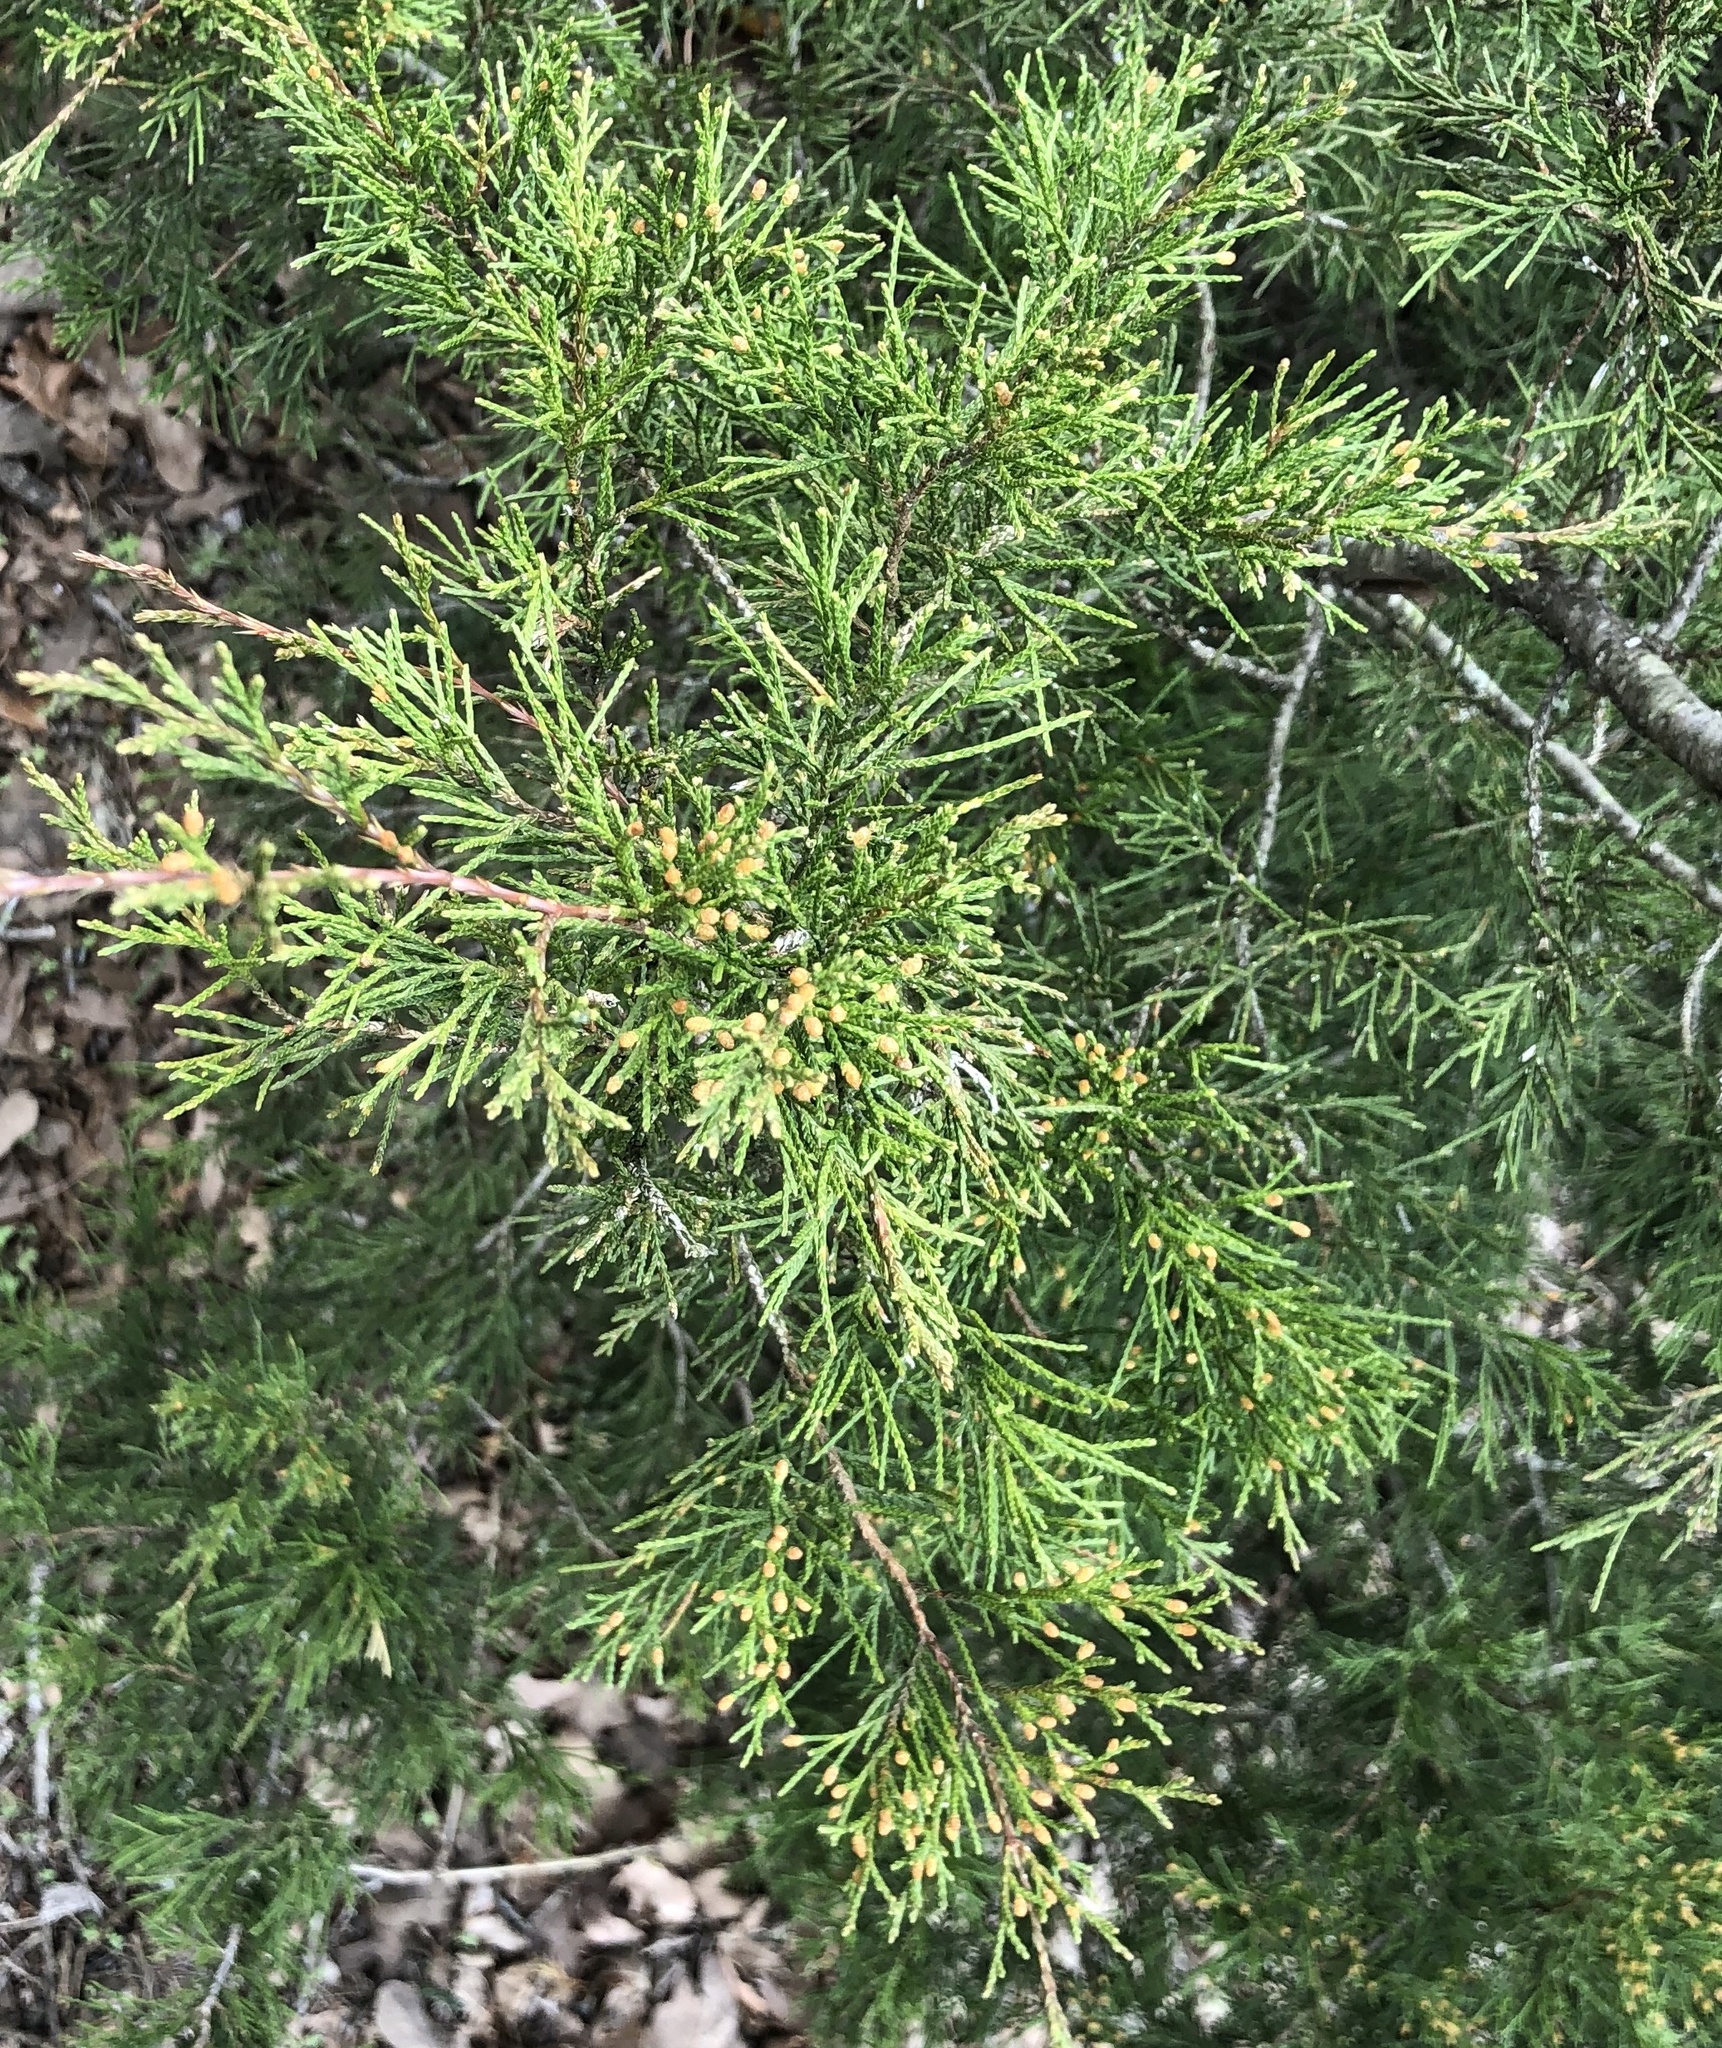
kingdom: Plantae
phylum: Tracheophyta
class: Pinopsida
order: Pinales
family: Cupressaceae
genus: Juniperus
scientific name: Juniperus virginiana
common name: Red juniper
